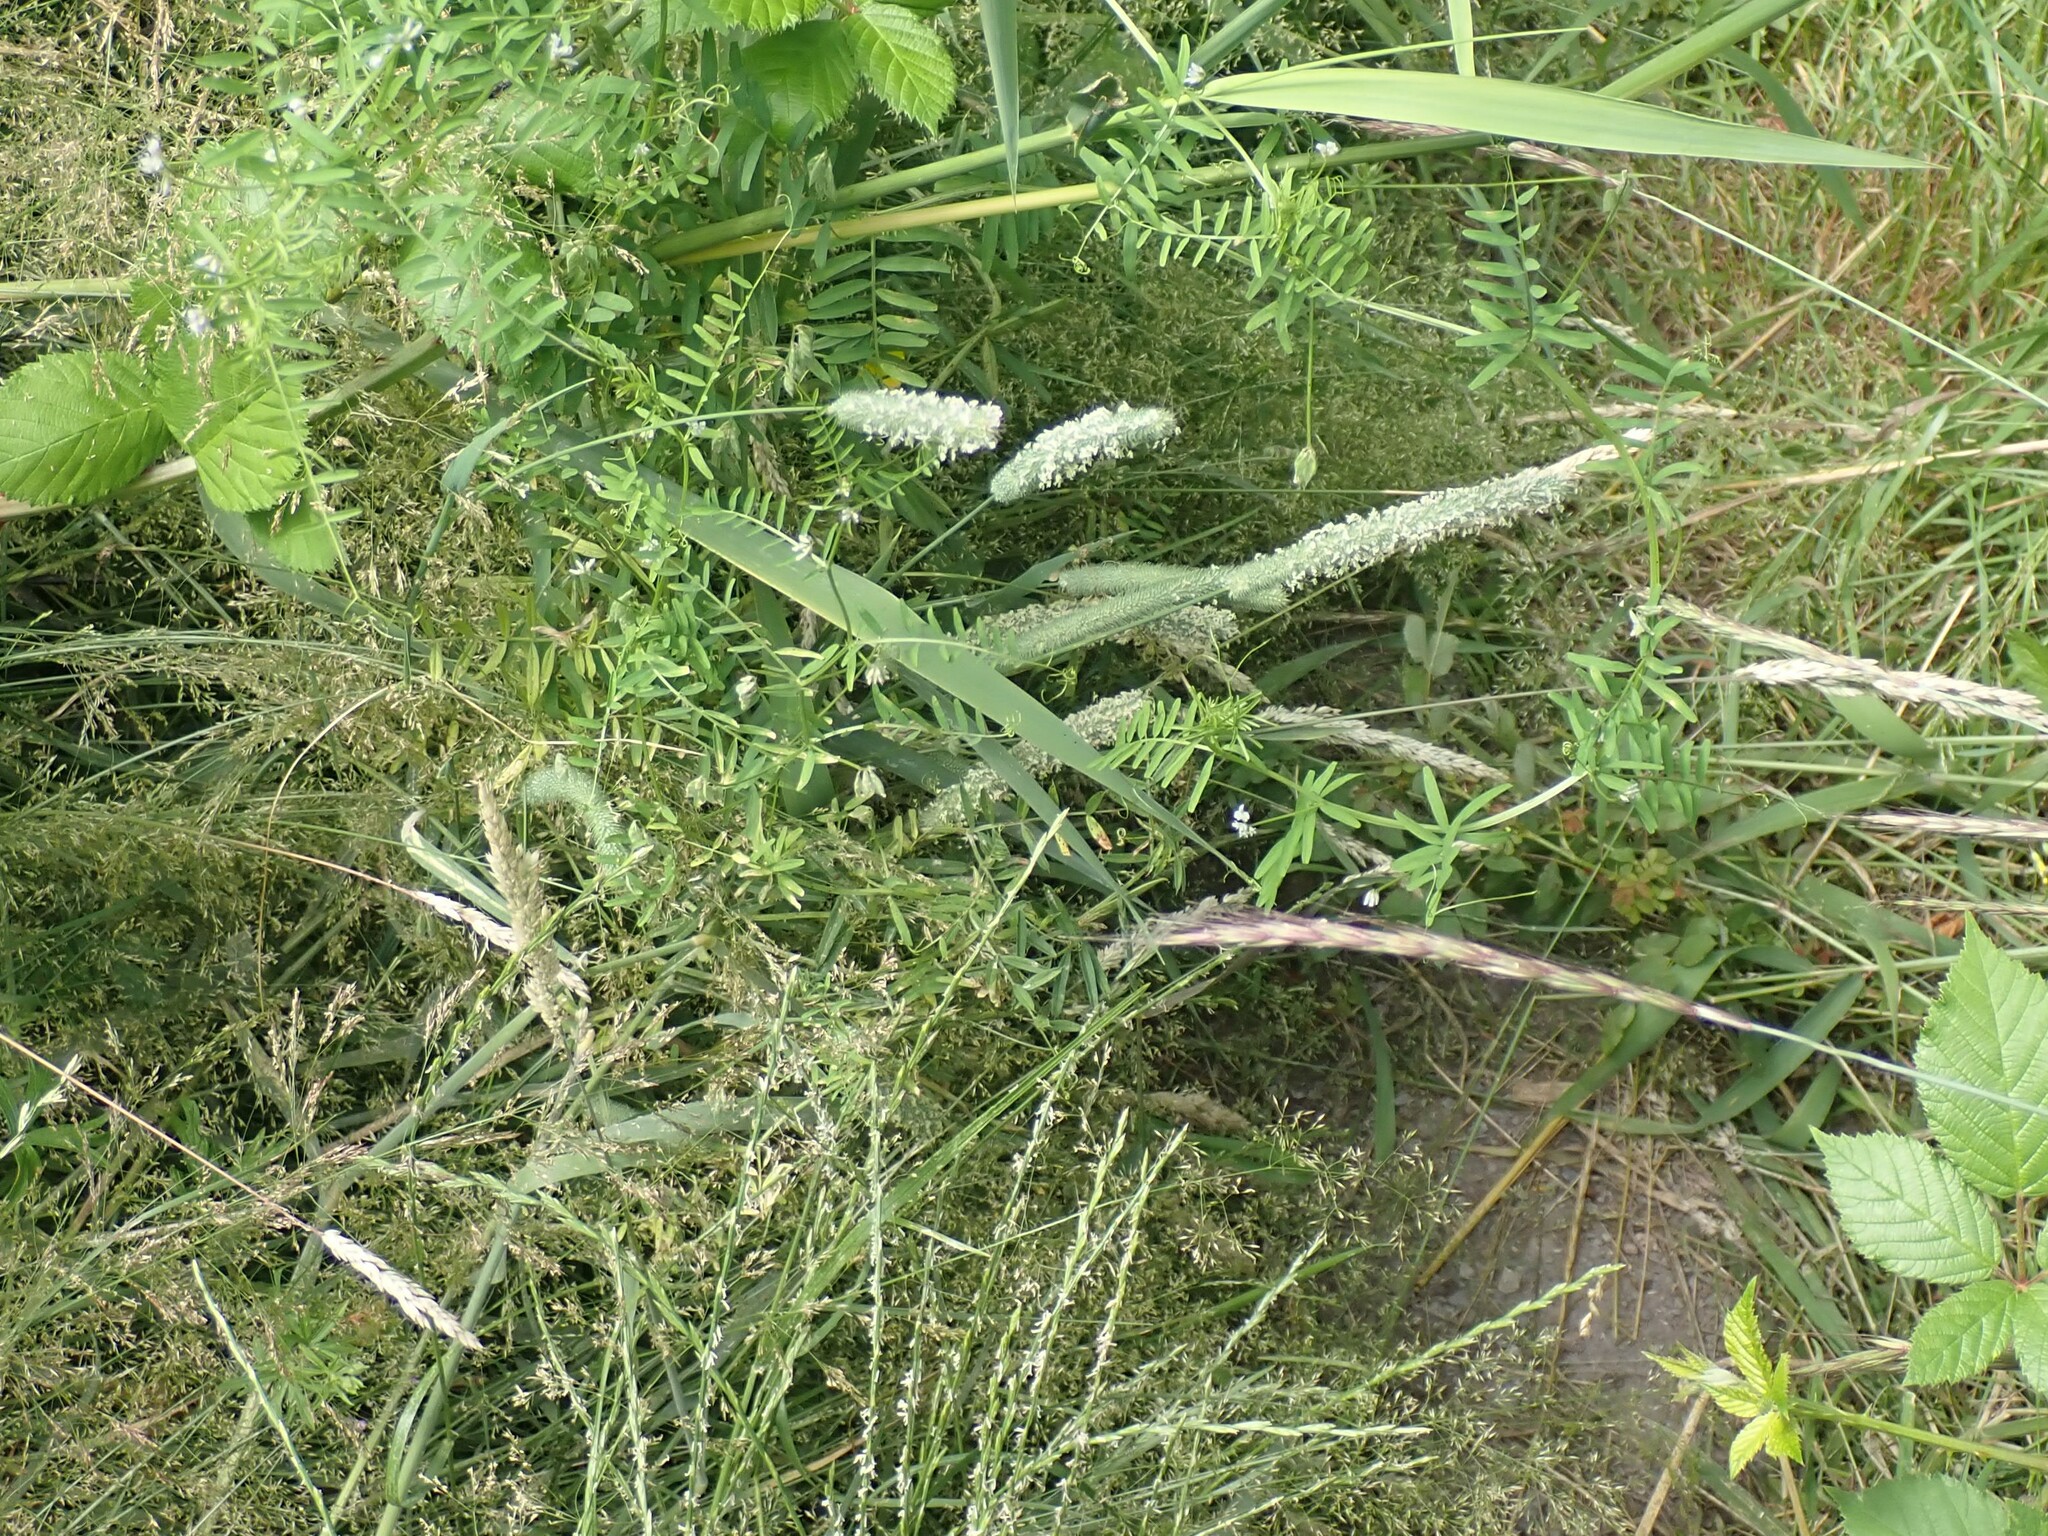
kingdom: Plantae
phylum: Tracheophyta
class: Liliopsida
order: Poales
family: Poaceae
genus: Phleum
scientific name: Phleum pratense
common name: Timothy grass
